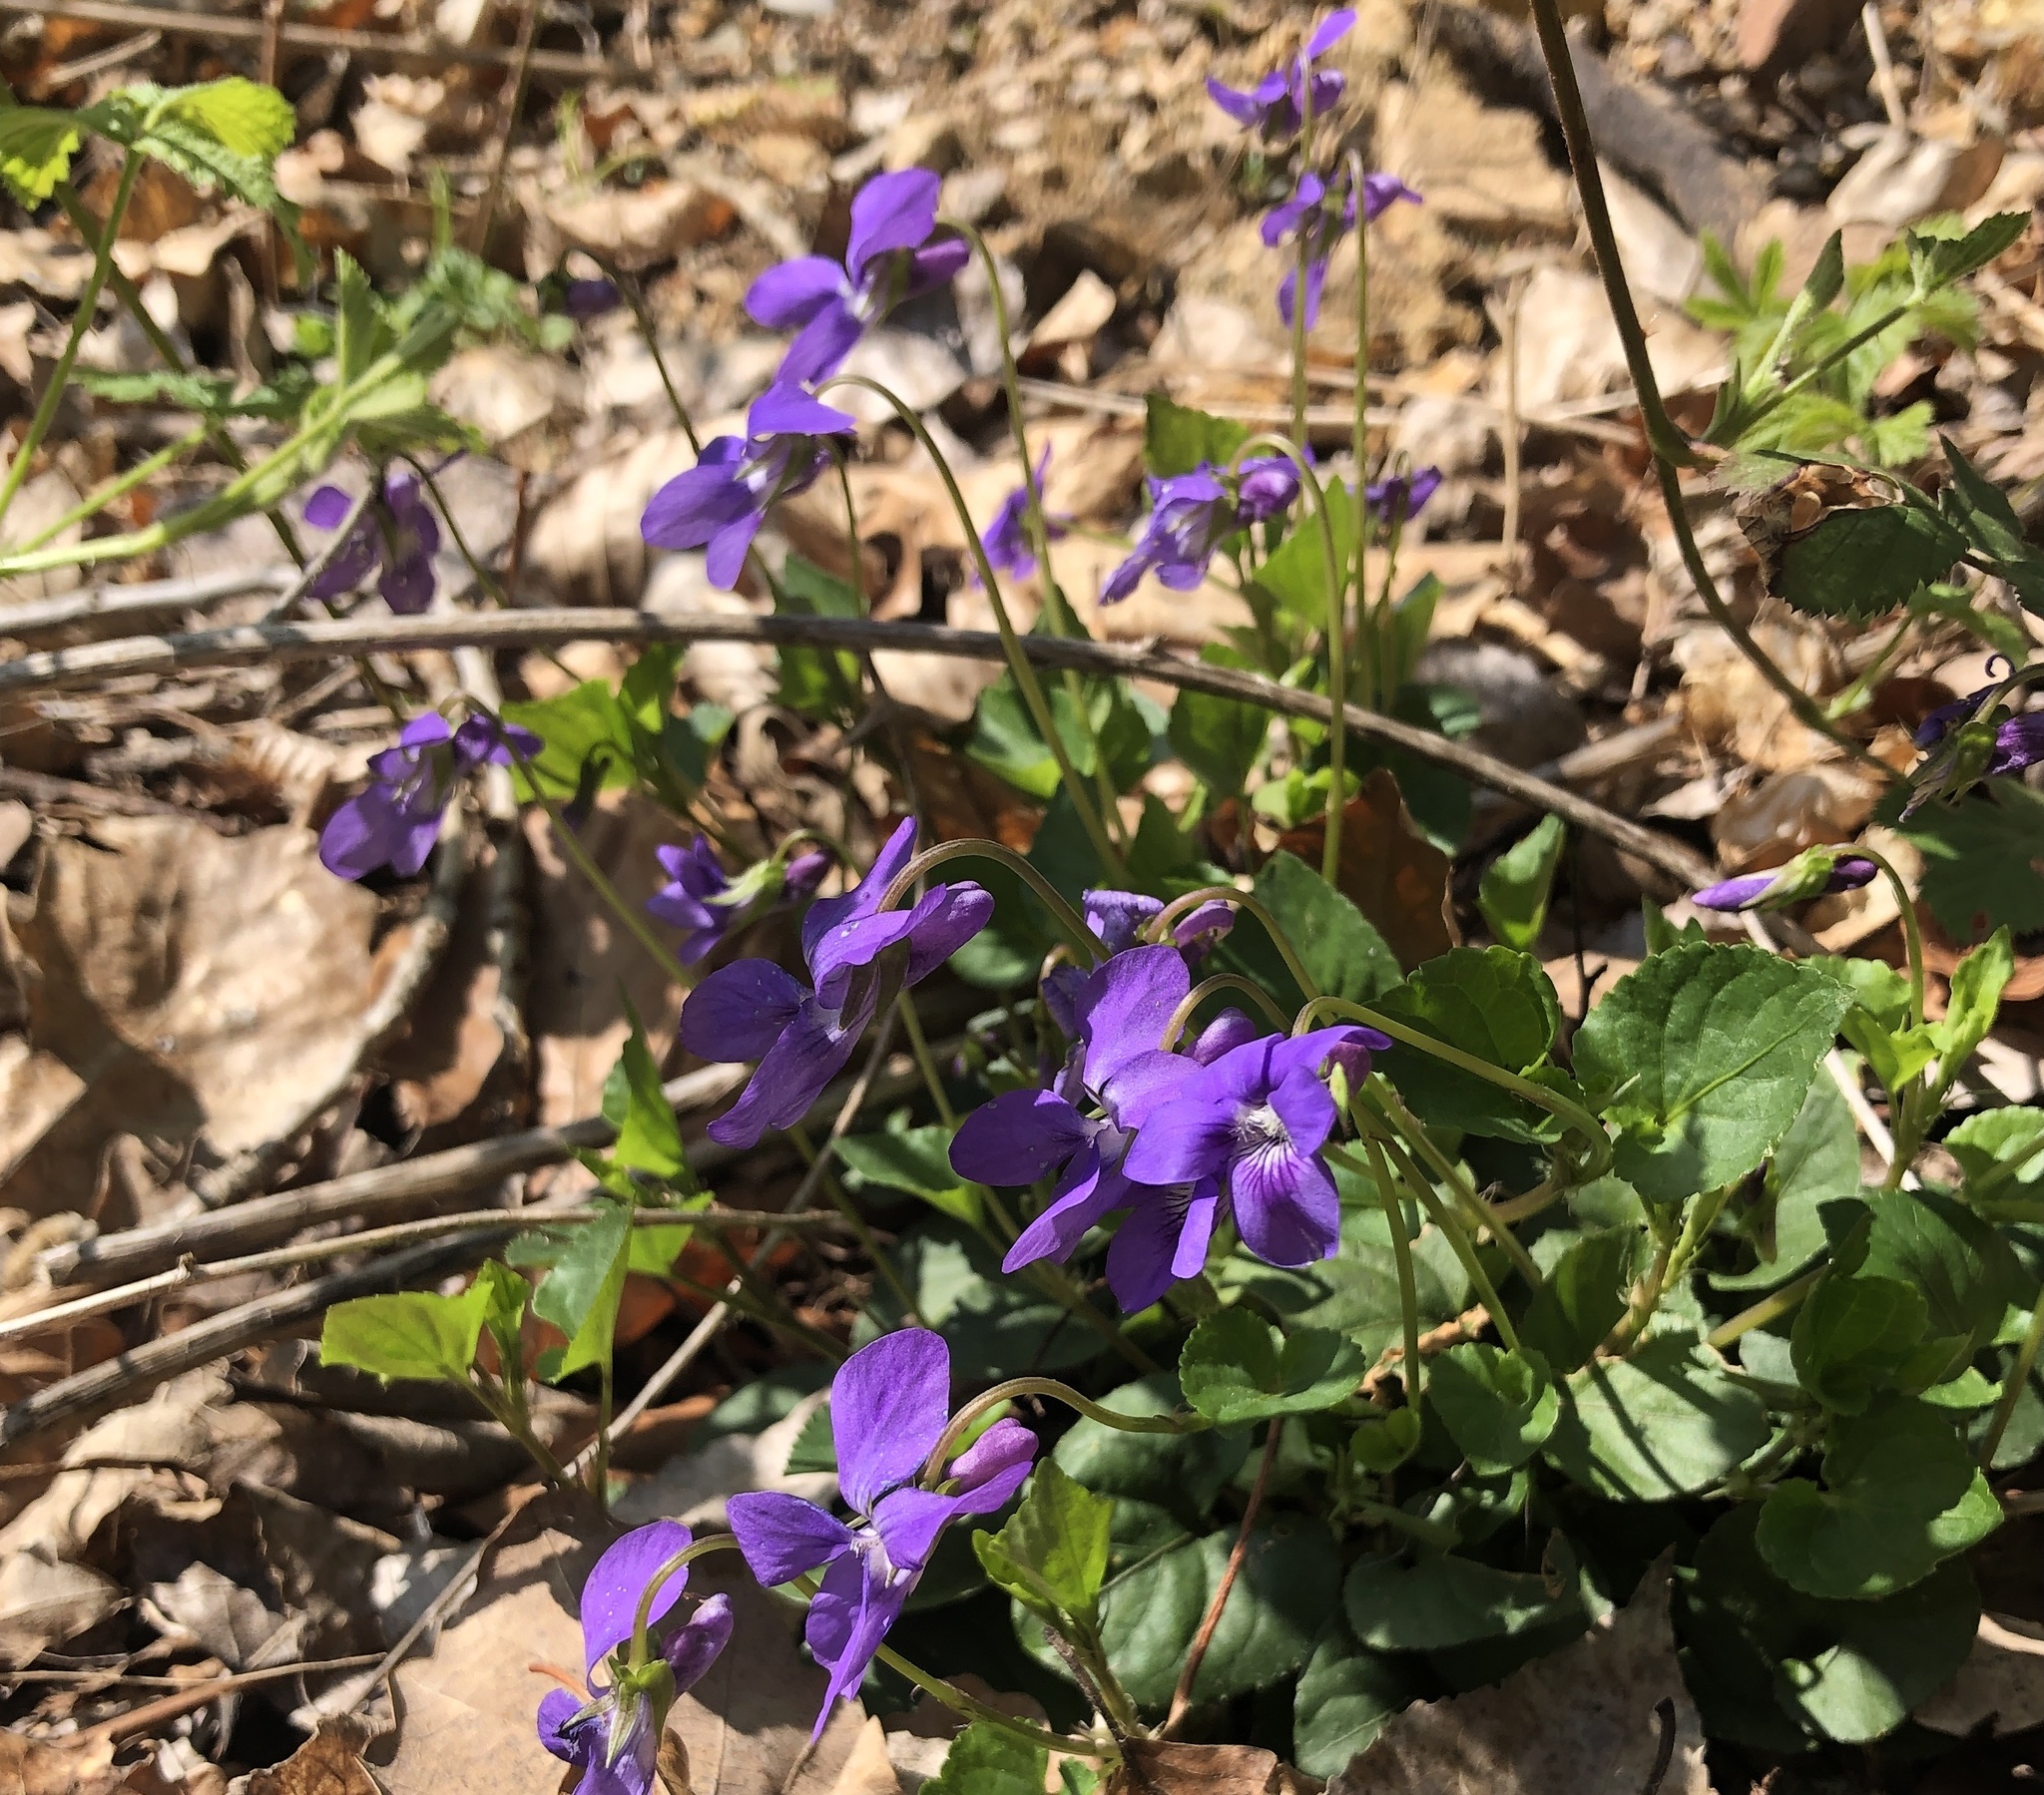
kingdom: Plantae
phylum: Tracheophyta
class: Magnoliopsida
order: Malpighiales
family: Violaceae
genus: Viola
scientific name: Viola reichenbachiana
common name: Early dog-violet
